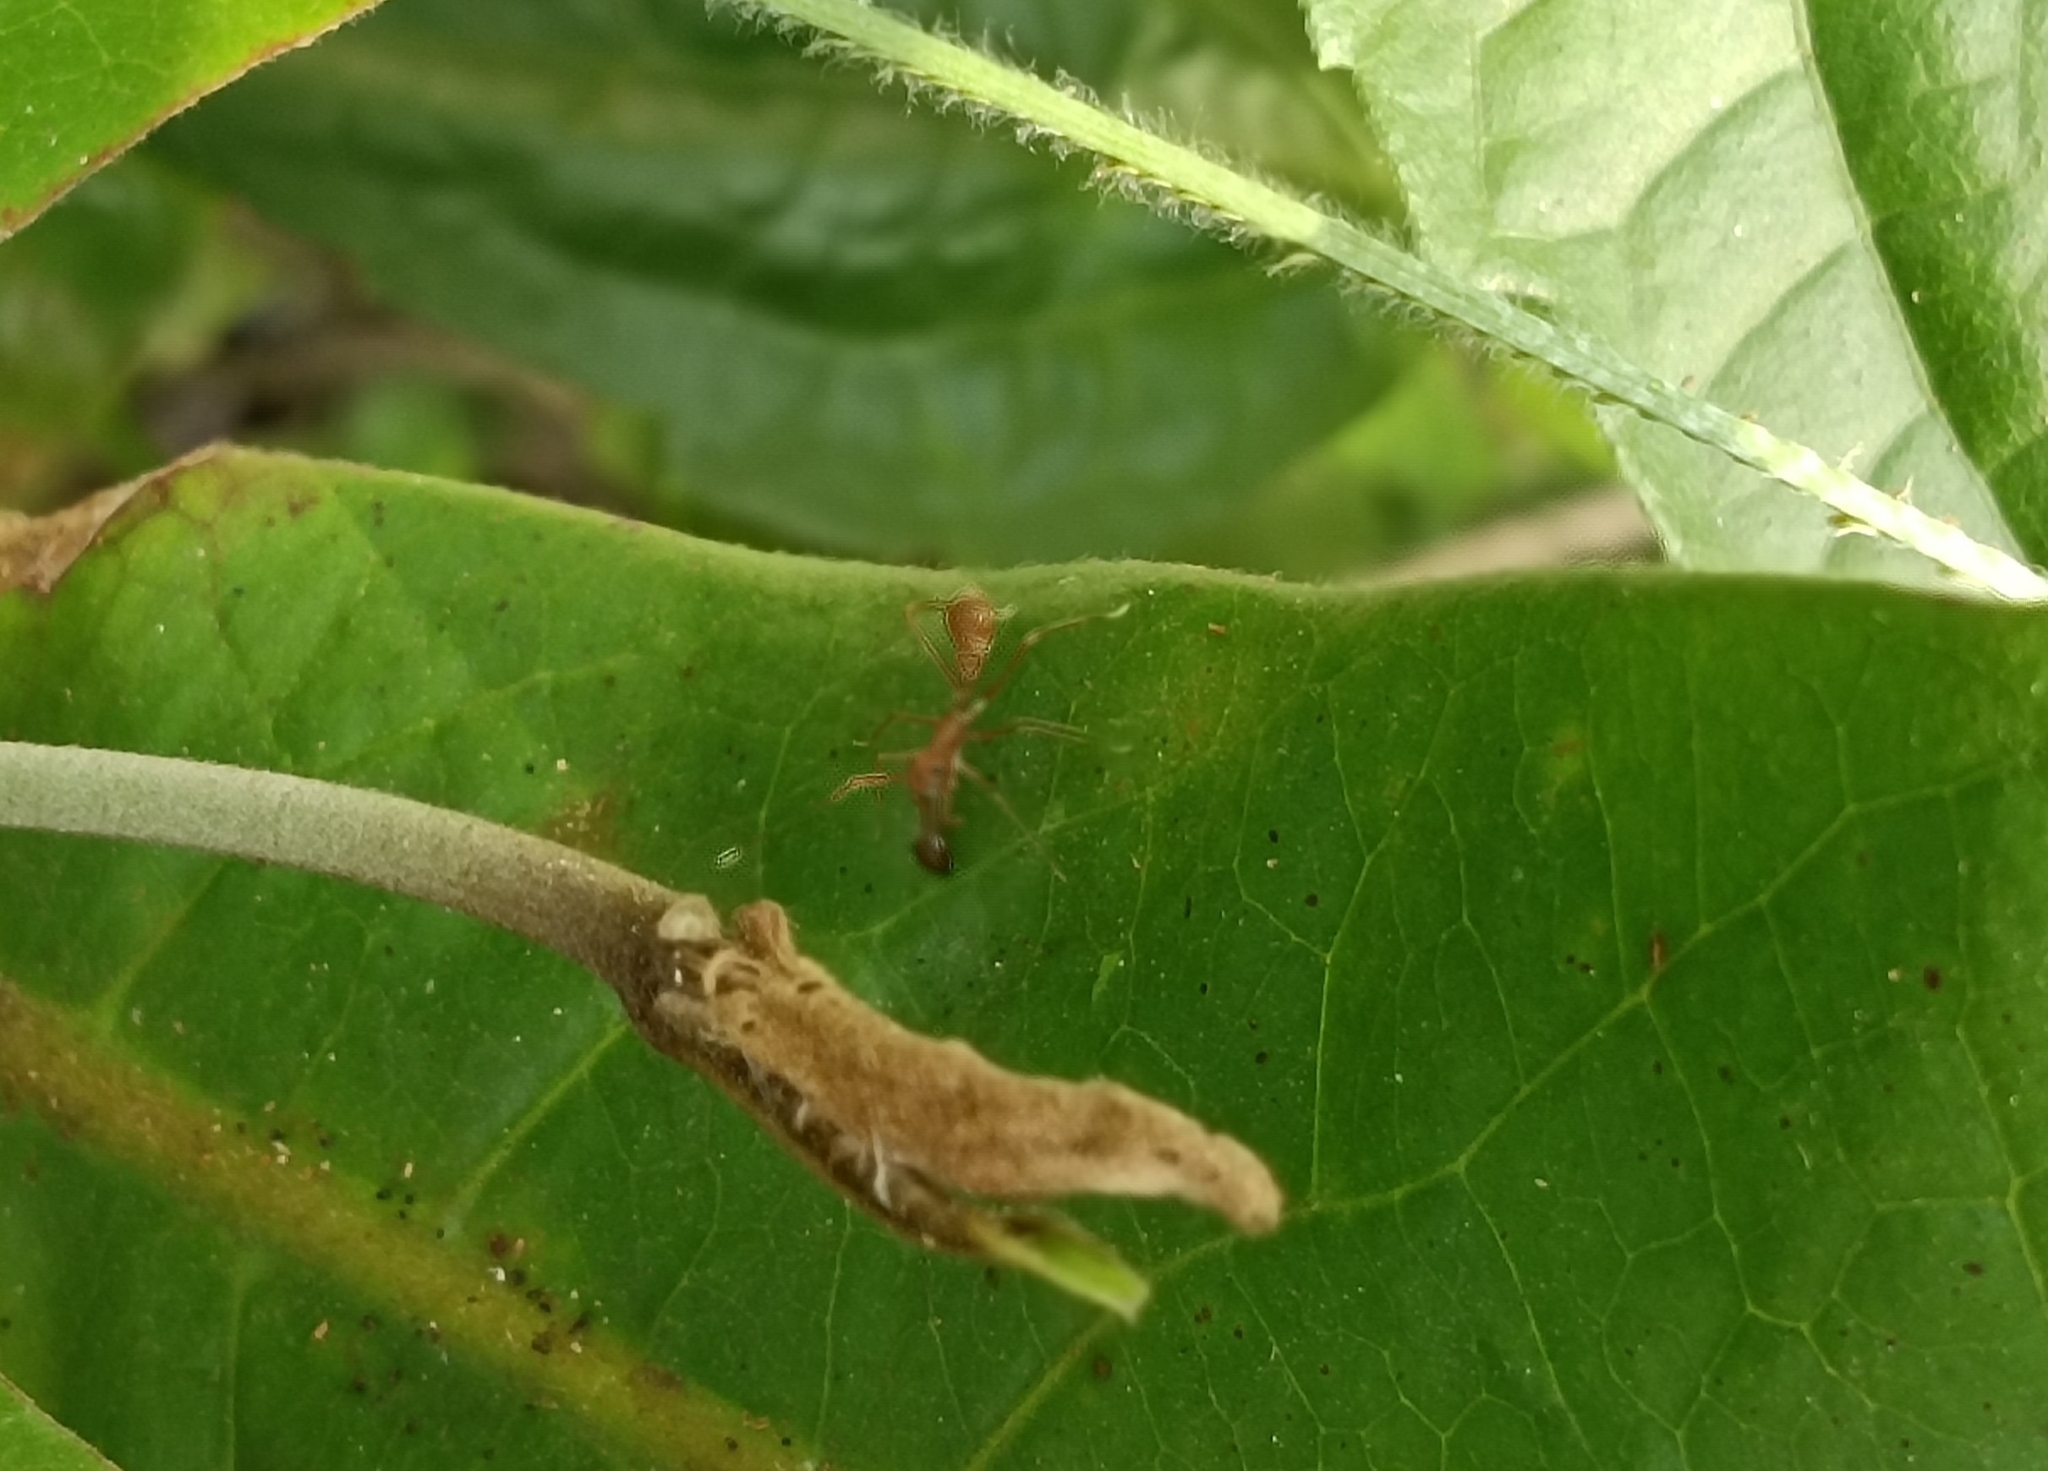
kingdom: Animalia
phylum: Arthropoda
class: Arachnida
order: Araneae
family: Salticidae
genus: Myrmaplata
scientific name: Myrmaplata plataleoides
